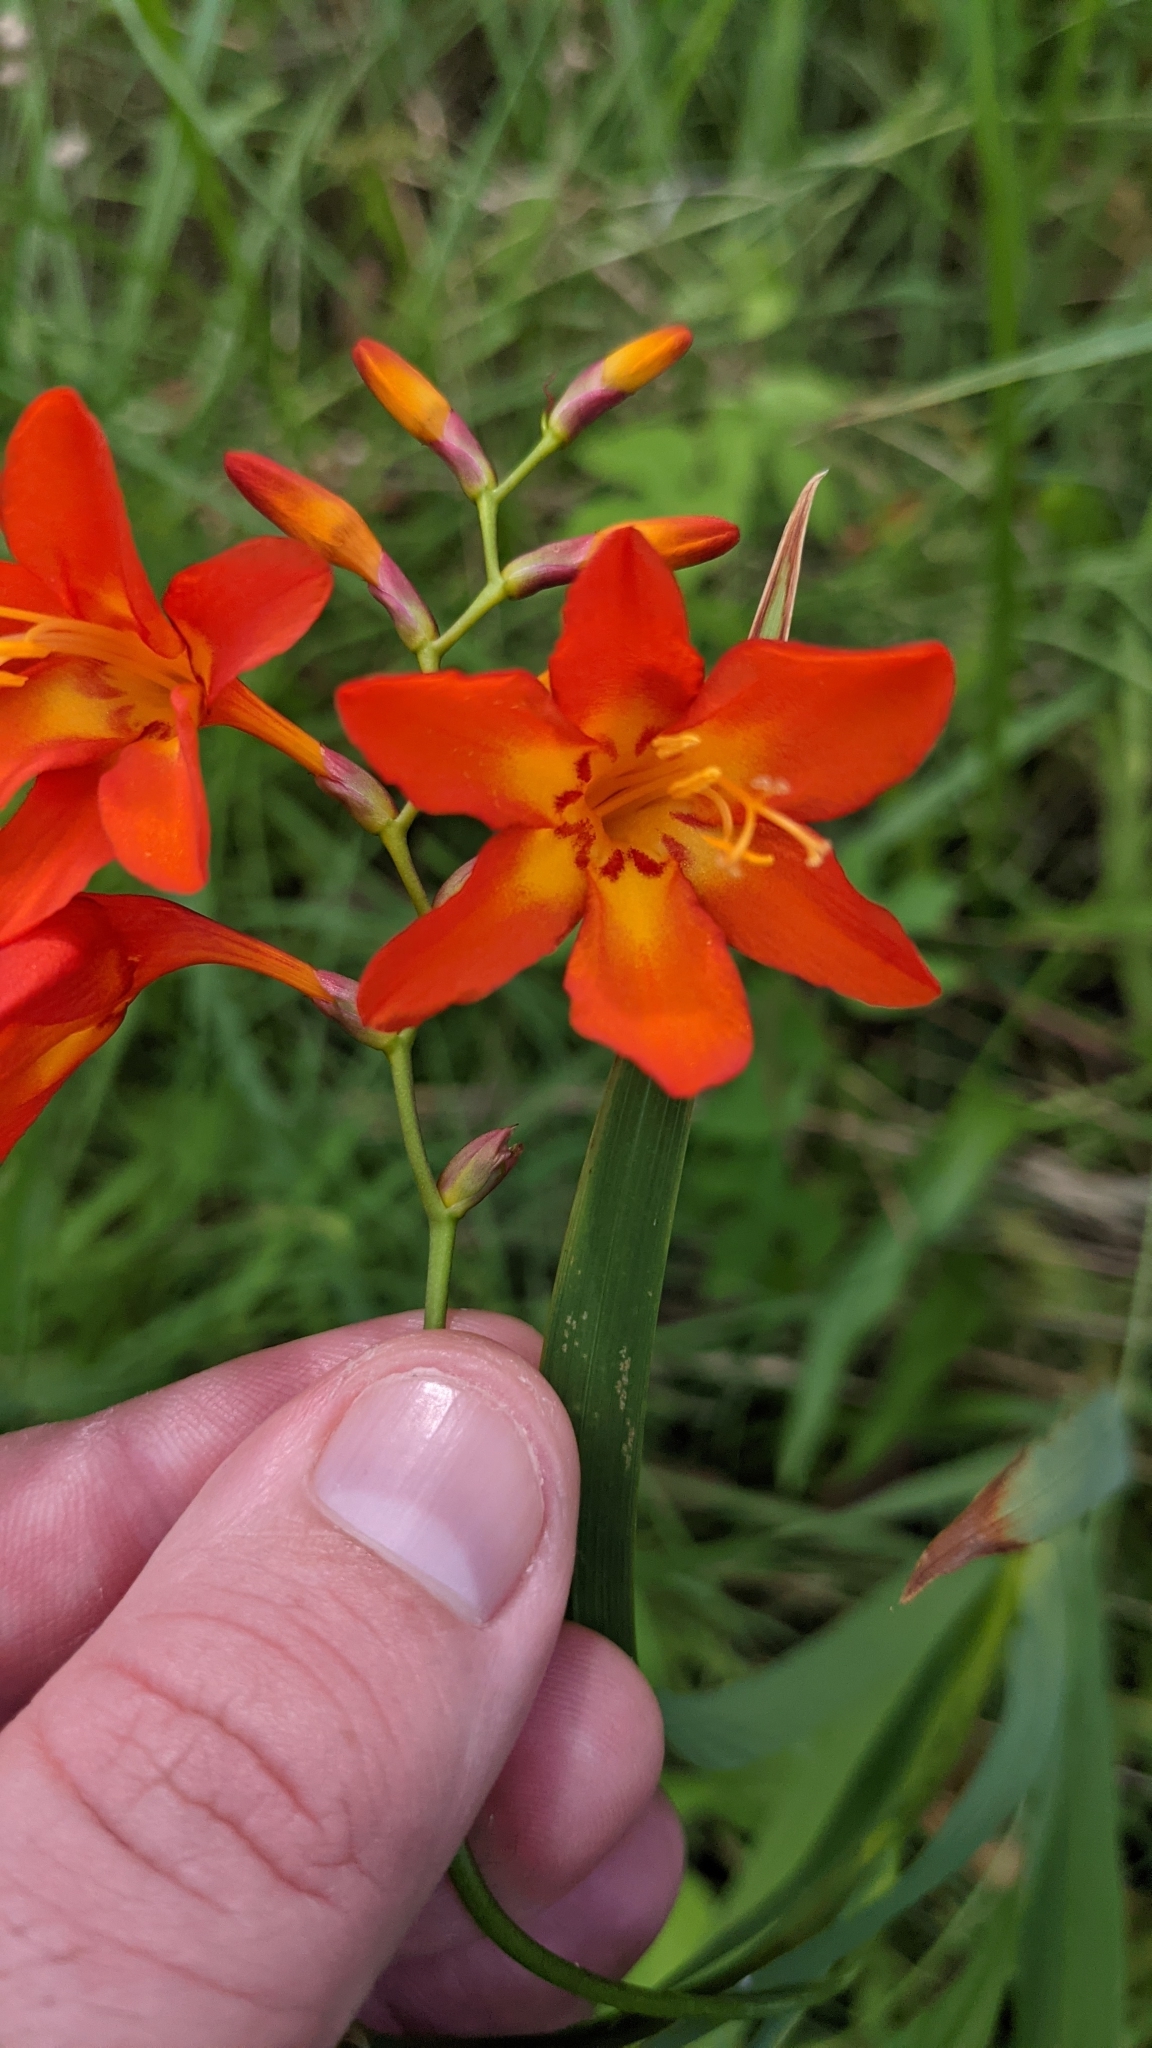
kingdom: Plantae
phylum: Tracheophyta
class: Liliopsida
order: Asparagales
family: Iridaceae
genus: Crocosmia
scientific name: Crocosmia crocosmiiflora
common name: Montbretia
